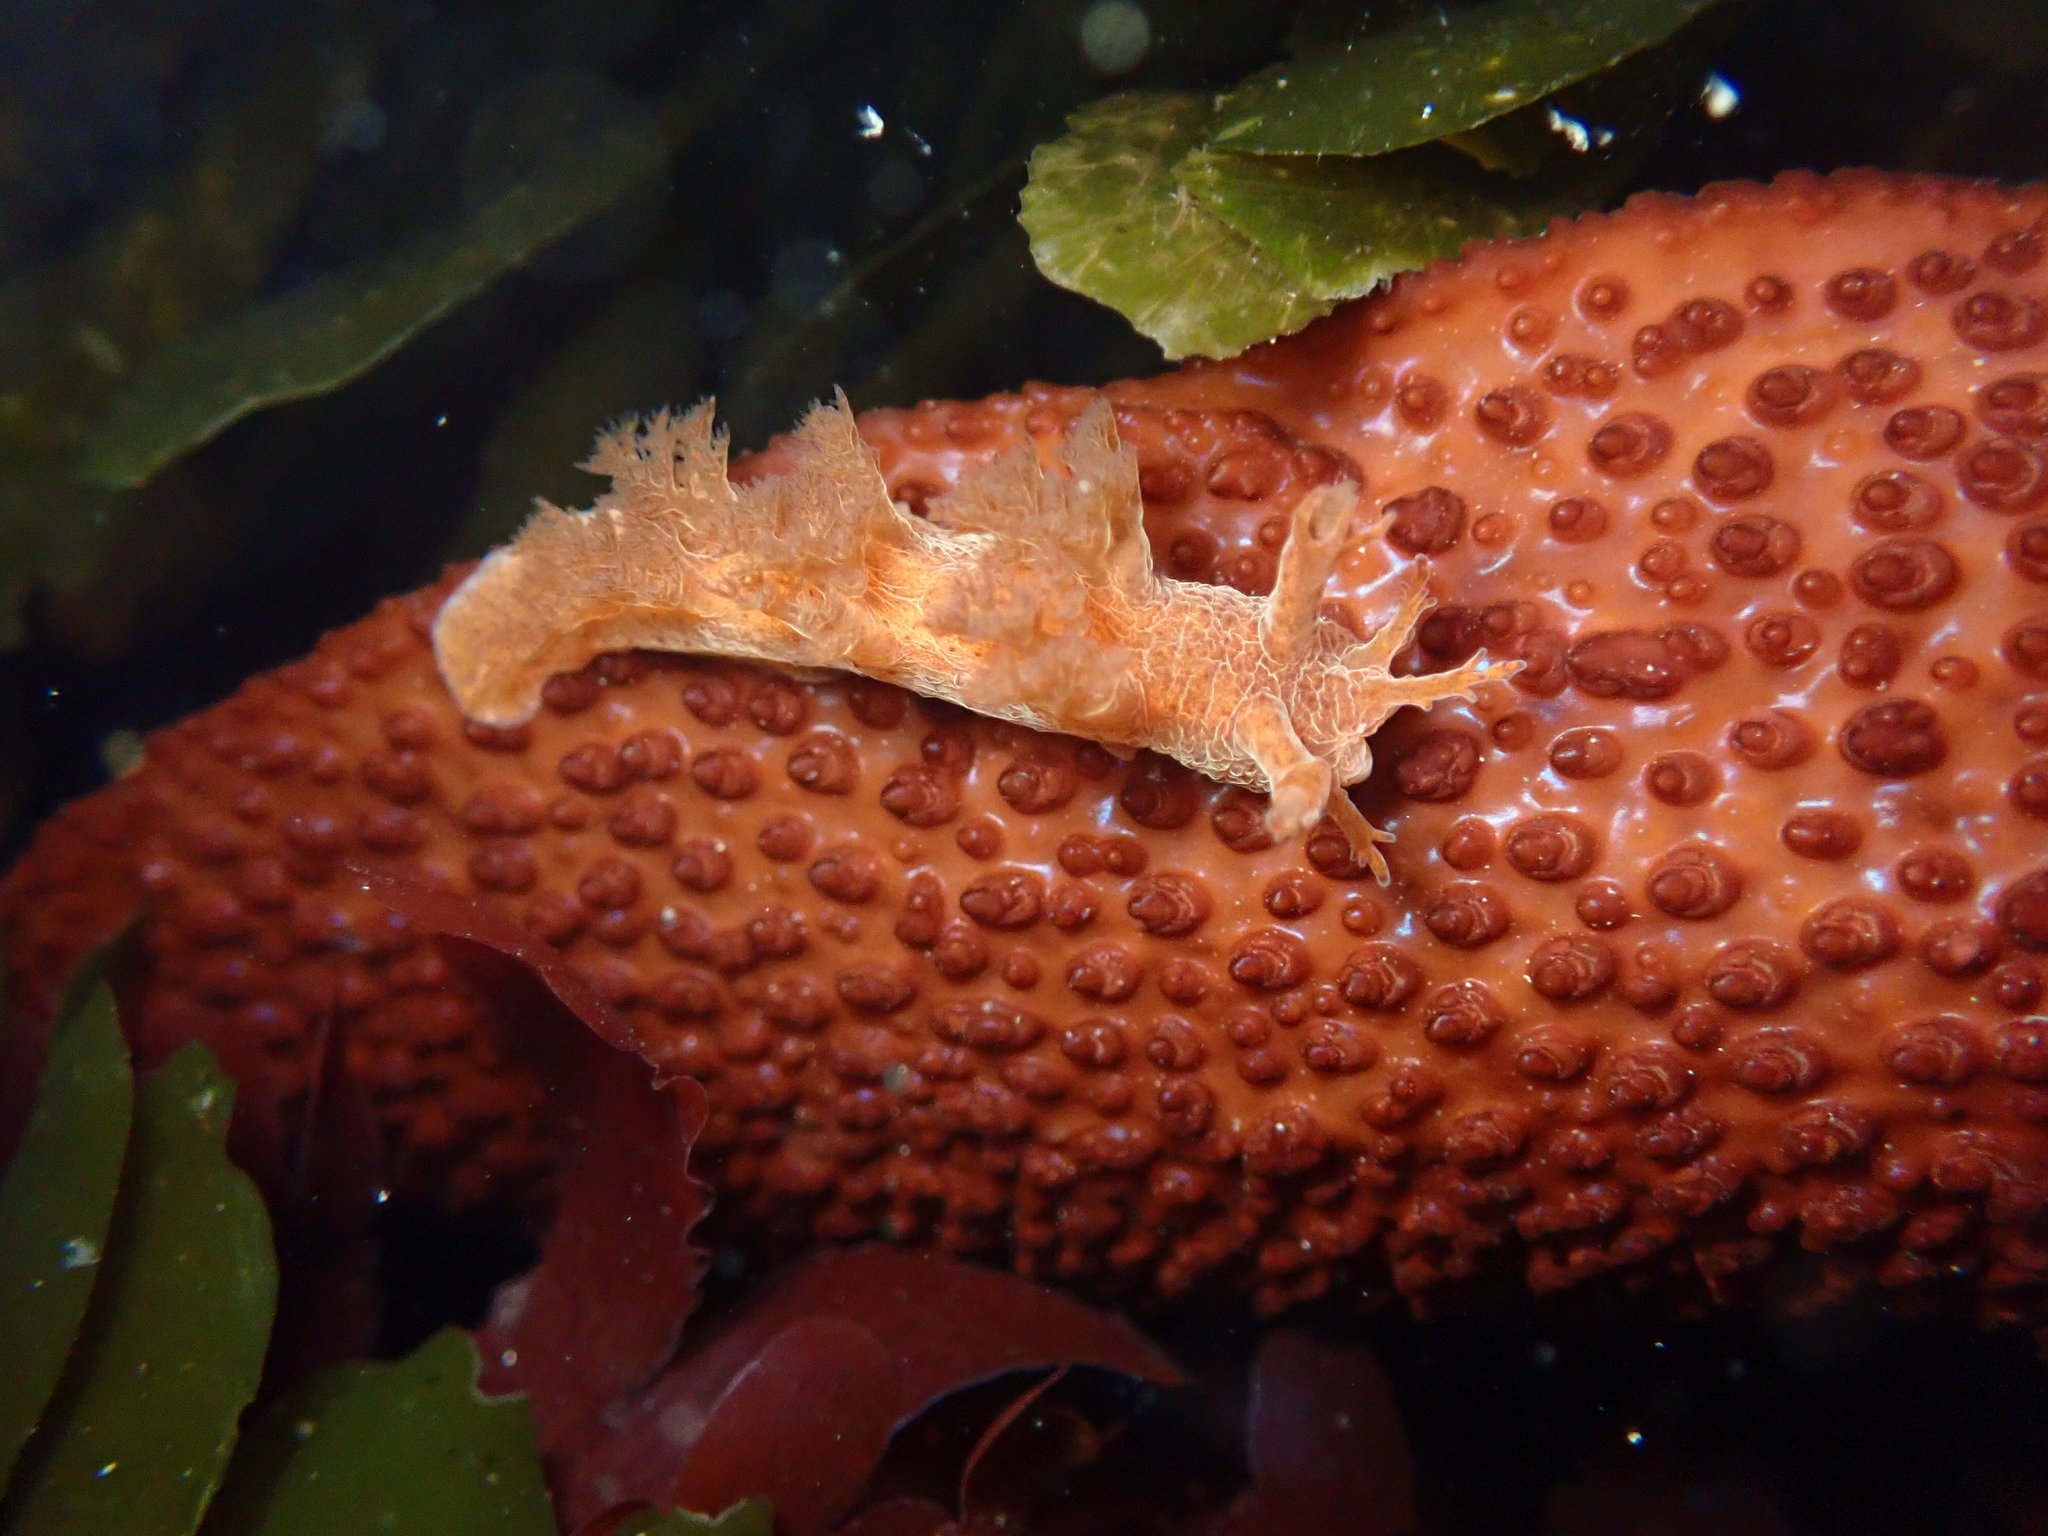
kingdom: Animalia
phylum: Mollusca
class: Gastropoda
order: Nudibranchia
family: Dendronotidae
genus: Dendronotus
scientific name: Dendronotus subramosus
